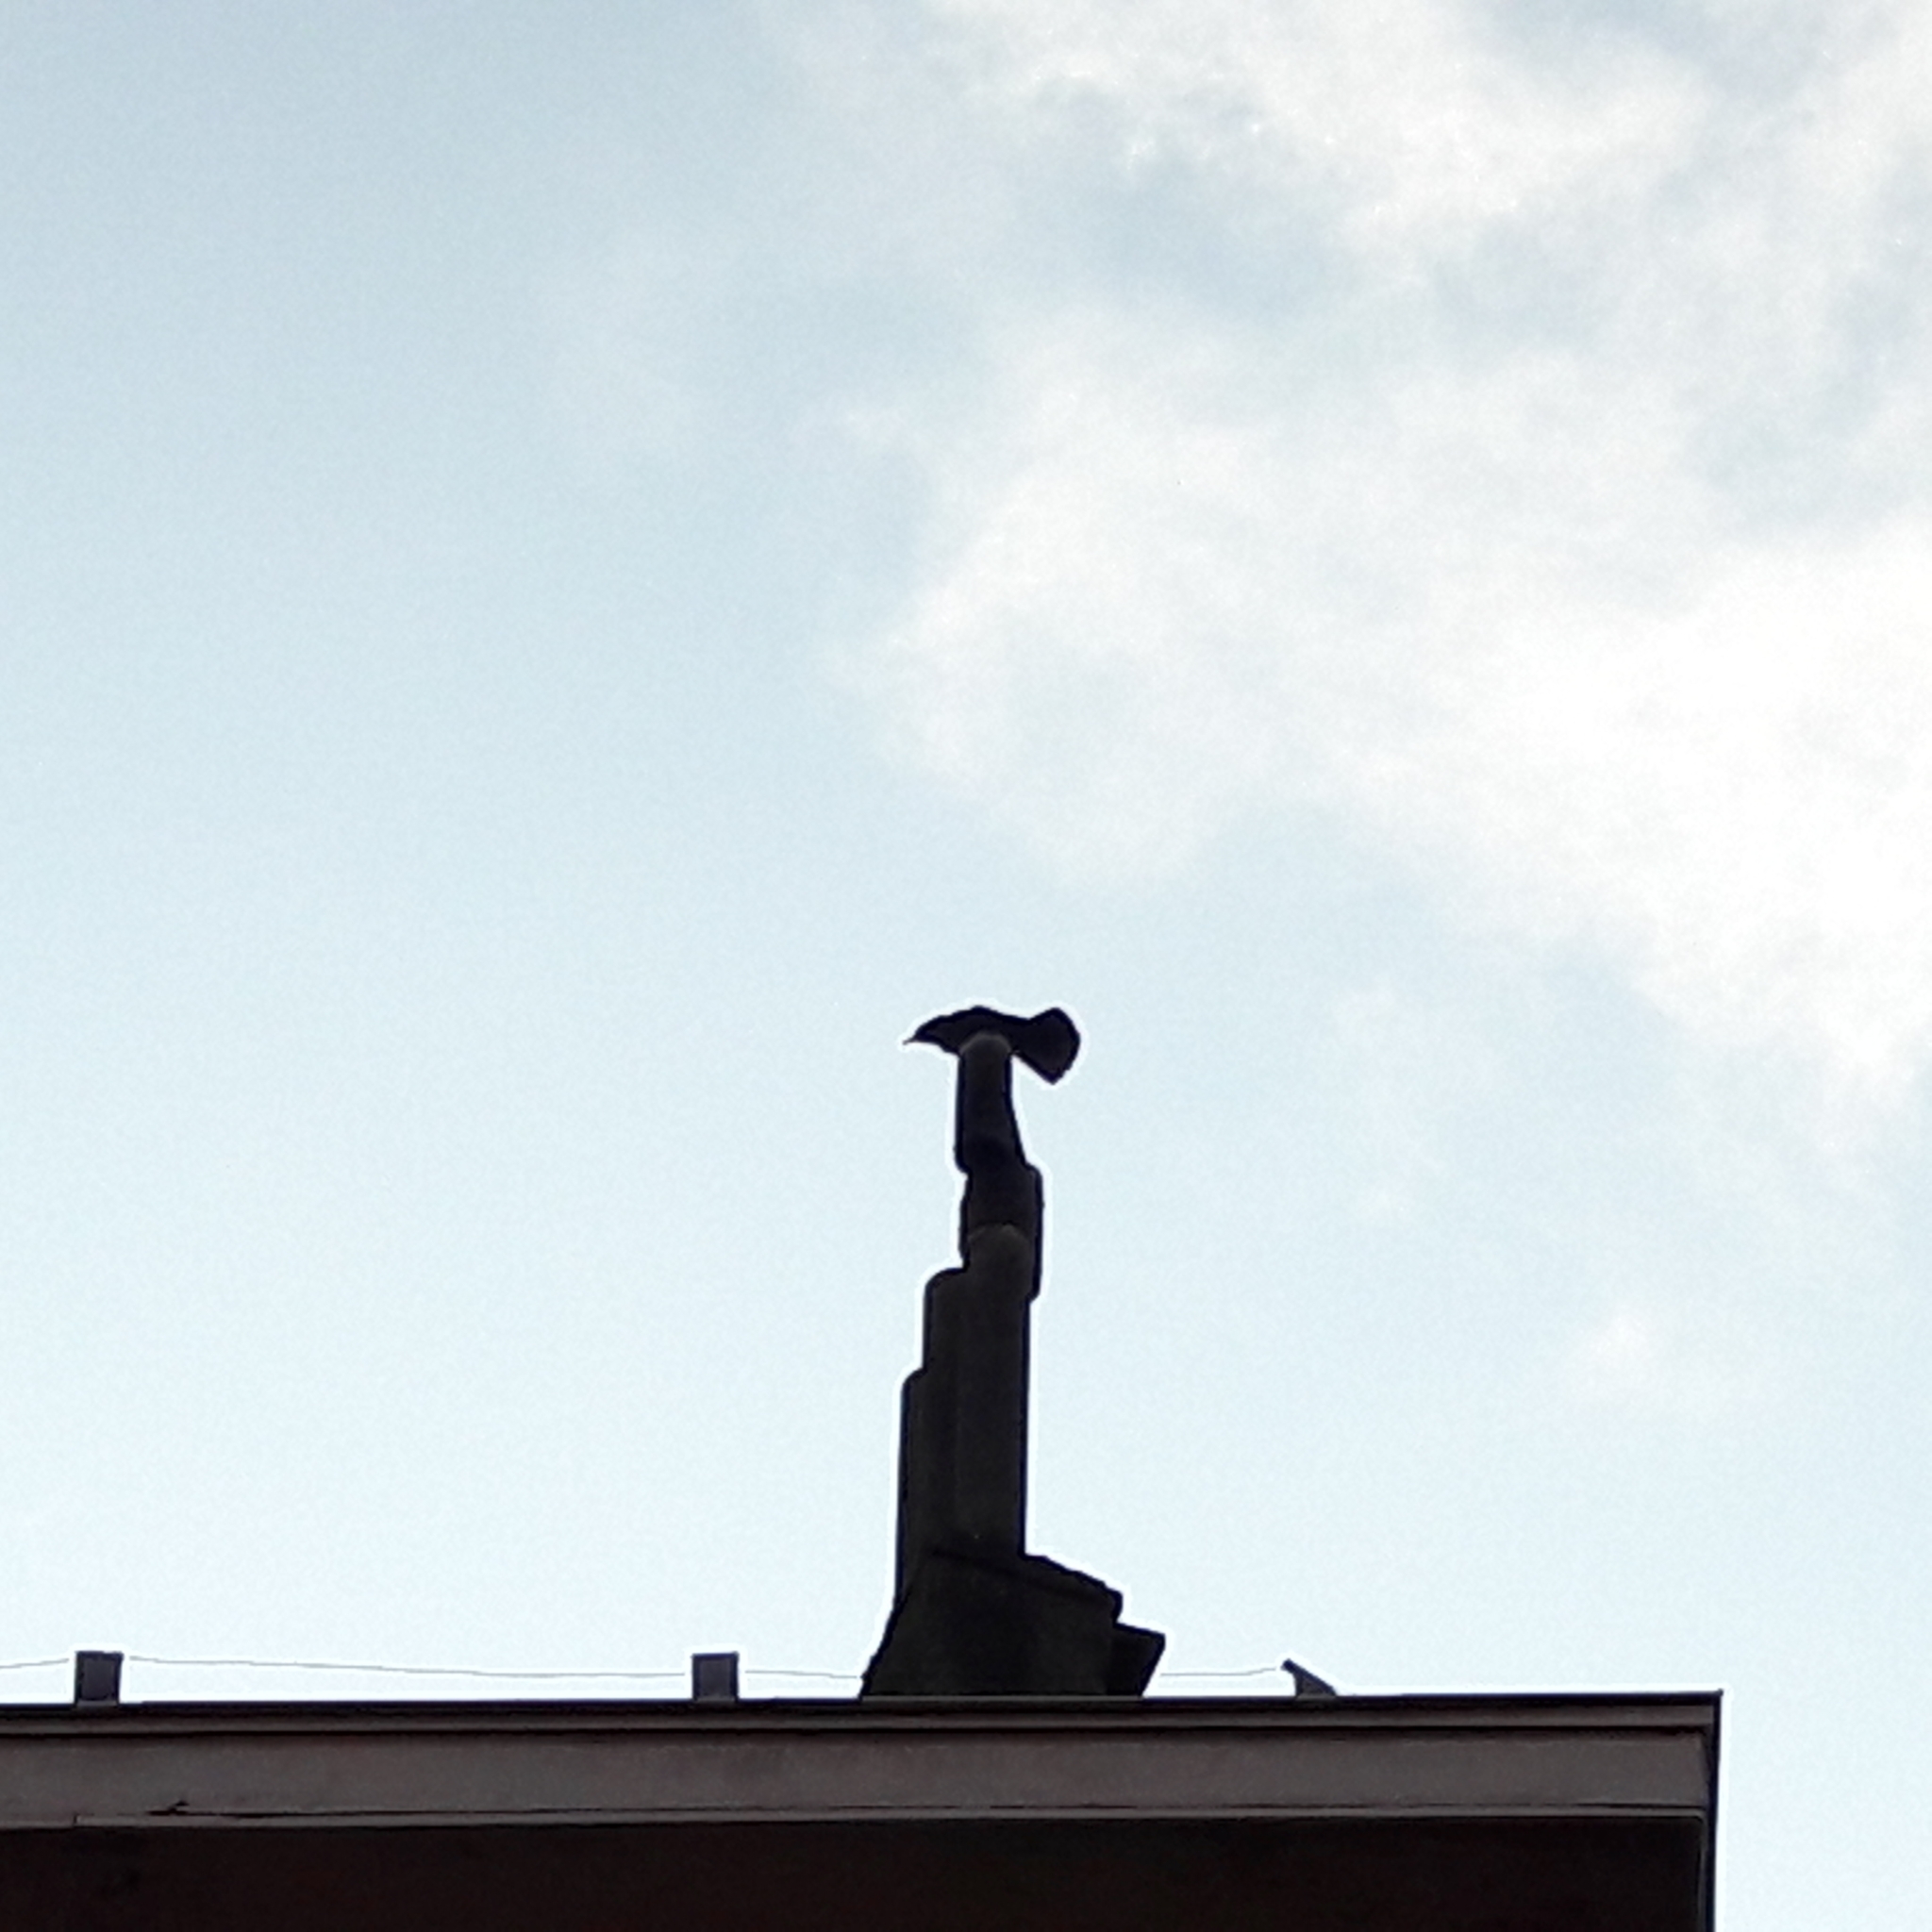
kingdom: Animalia
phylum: Chordata
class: Aves
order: Passeriformes
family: Corvidae
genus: Corvus
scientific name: Corvus corone
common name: Carrion crow
